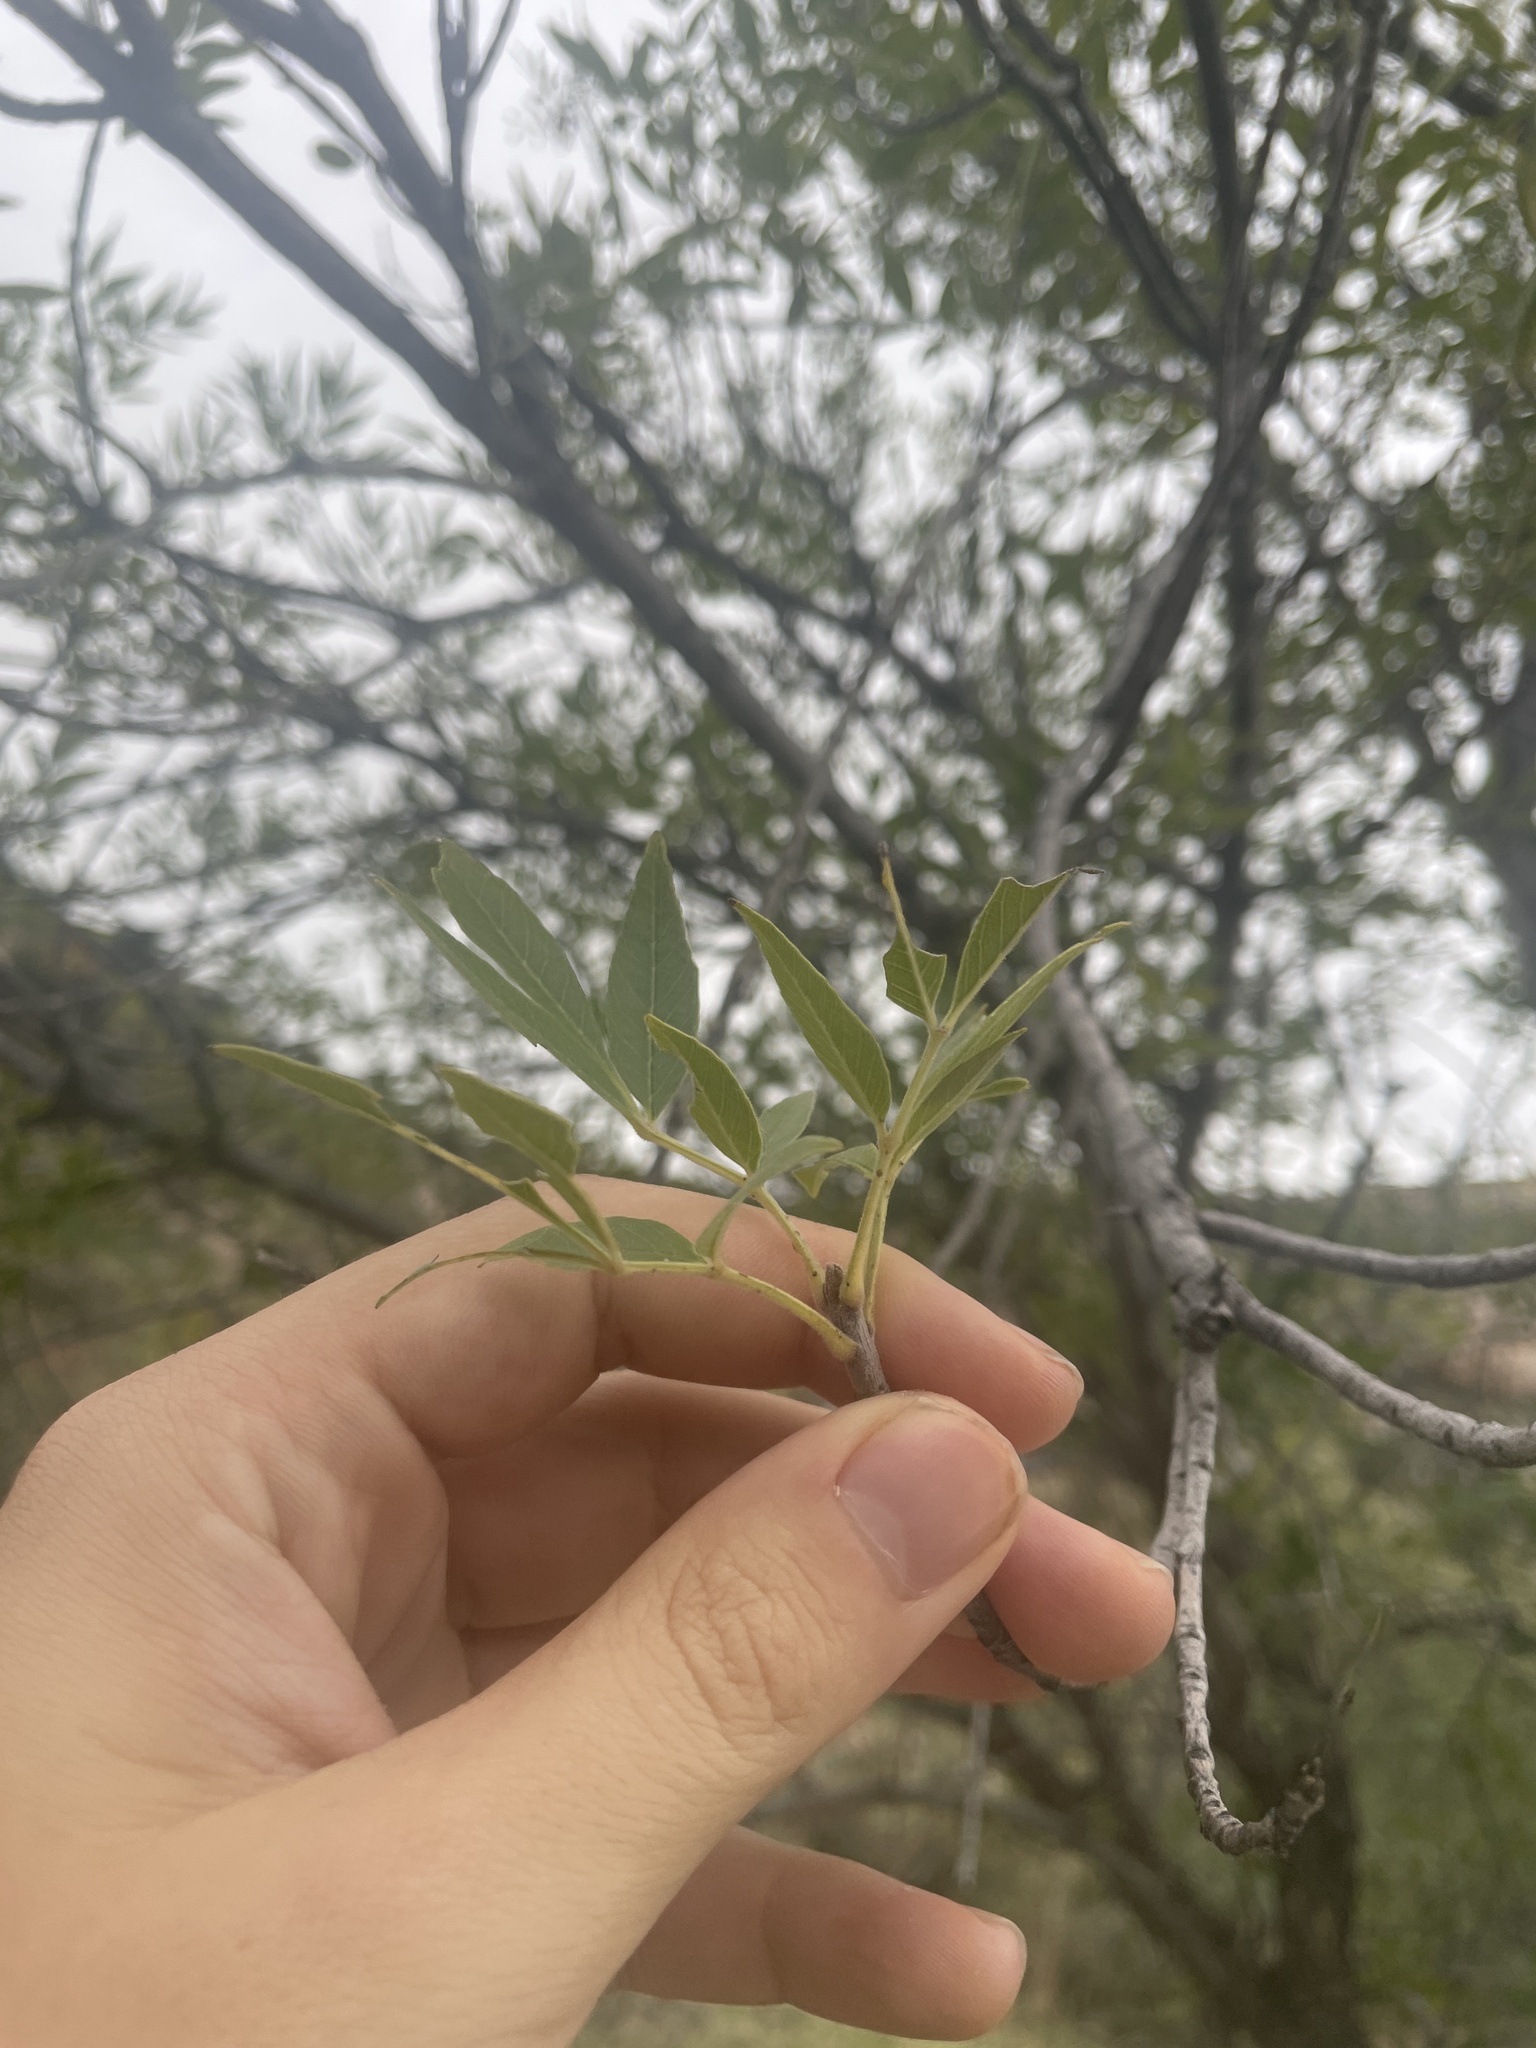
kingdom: Plantae
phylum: Tracheophyta
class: Magnoliopsida
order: Lamiales
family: Oleaceae
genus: Fraxinus
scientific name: Fraxinus velutina
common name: Arizon ash
